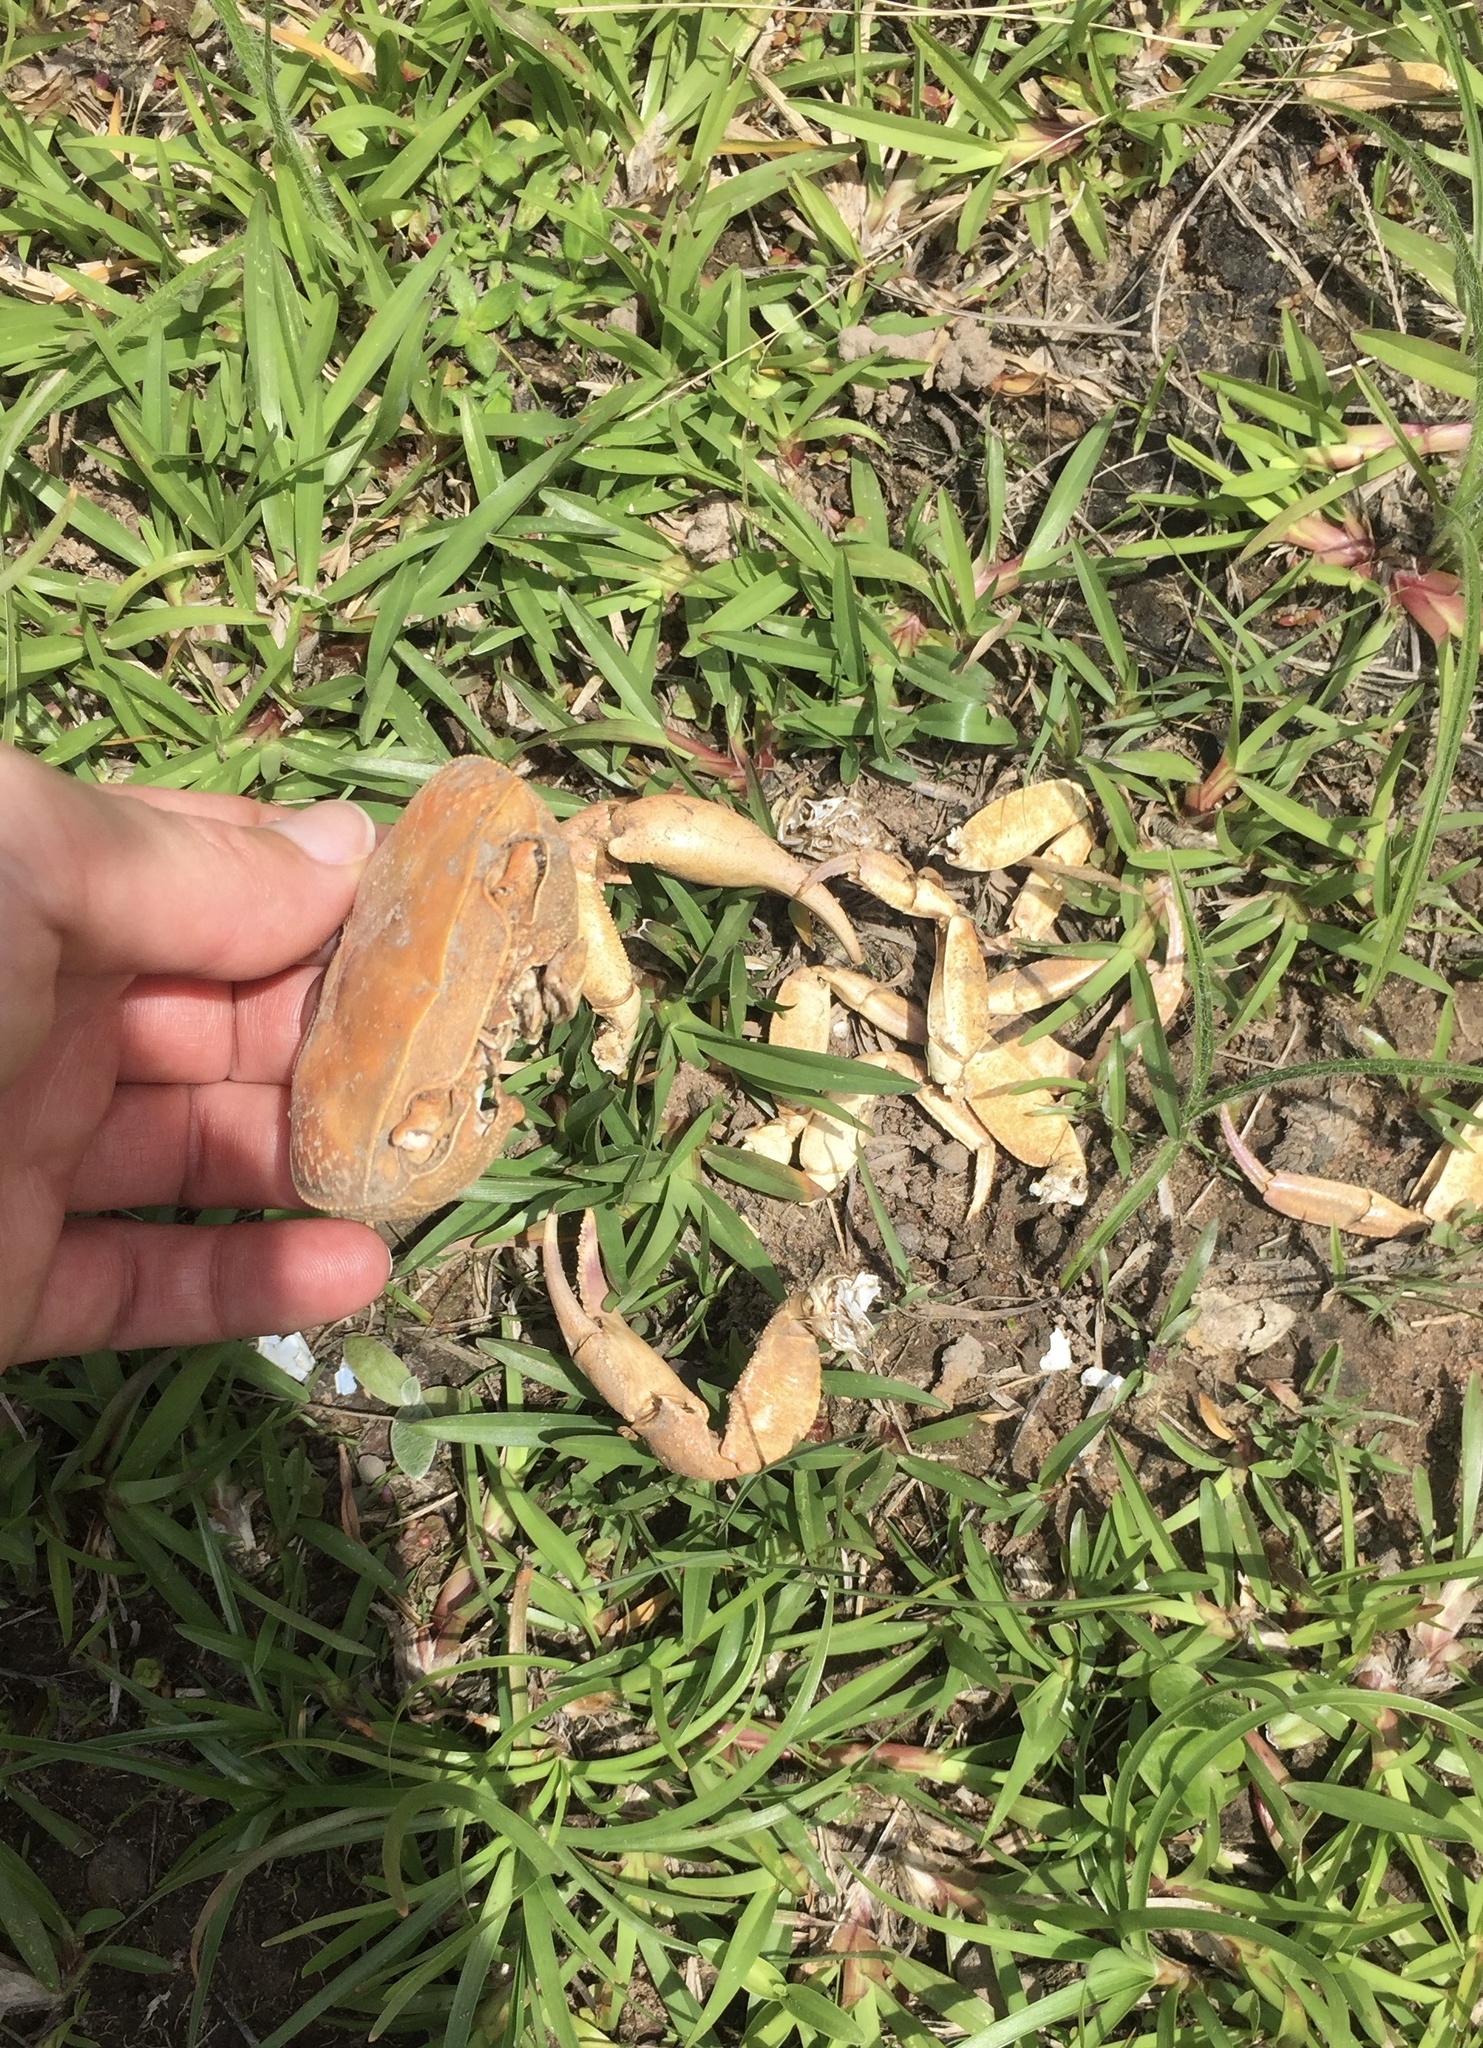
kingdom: Animalia
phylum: Arthropoda
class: Malacostraca
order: Decapoda
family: Potamonautidae
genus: Potamonautes
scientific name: Potamonautes sidneyi
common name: Natal river crab
